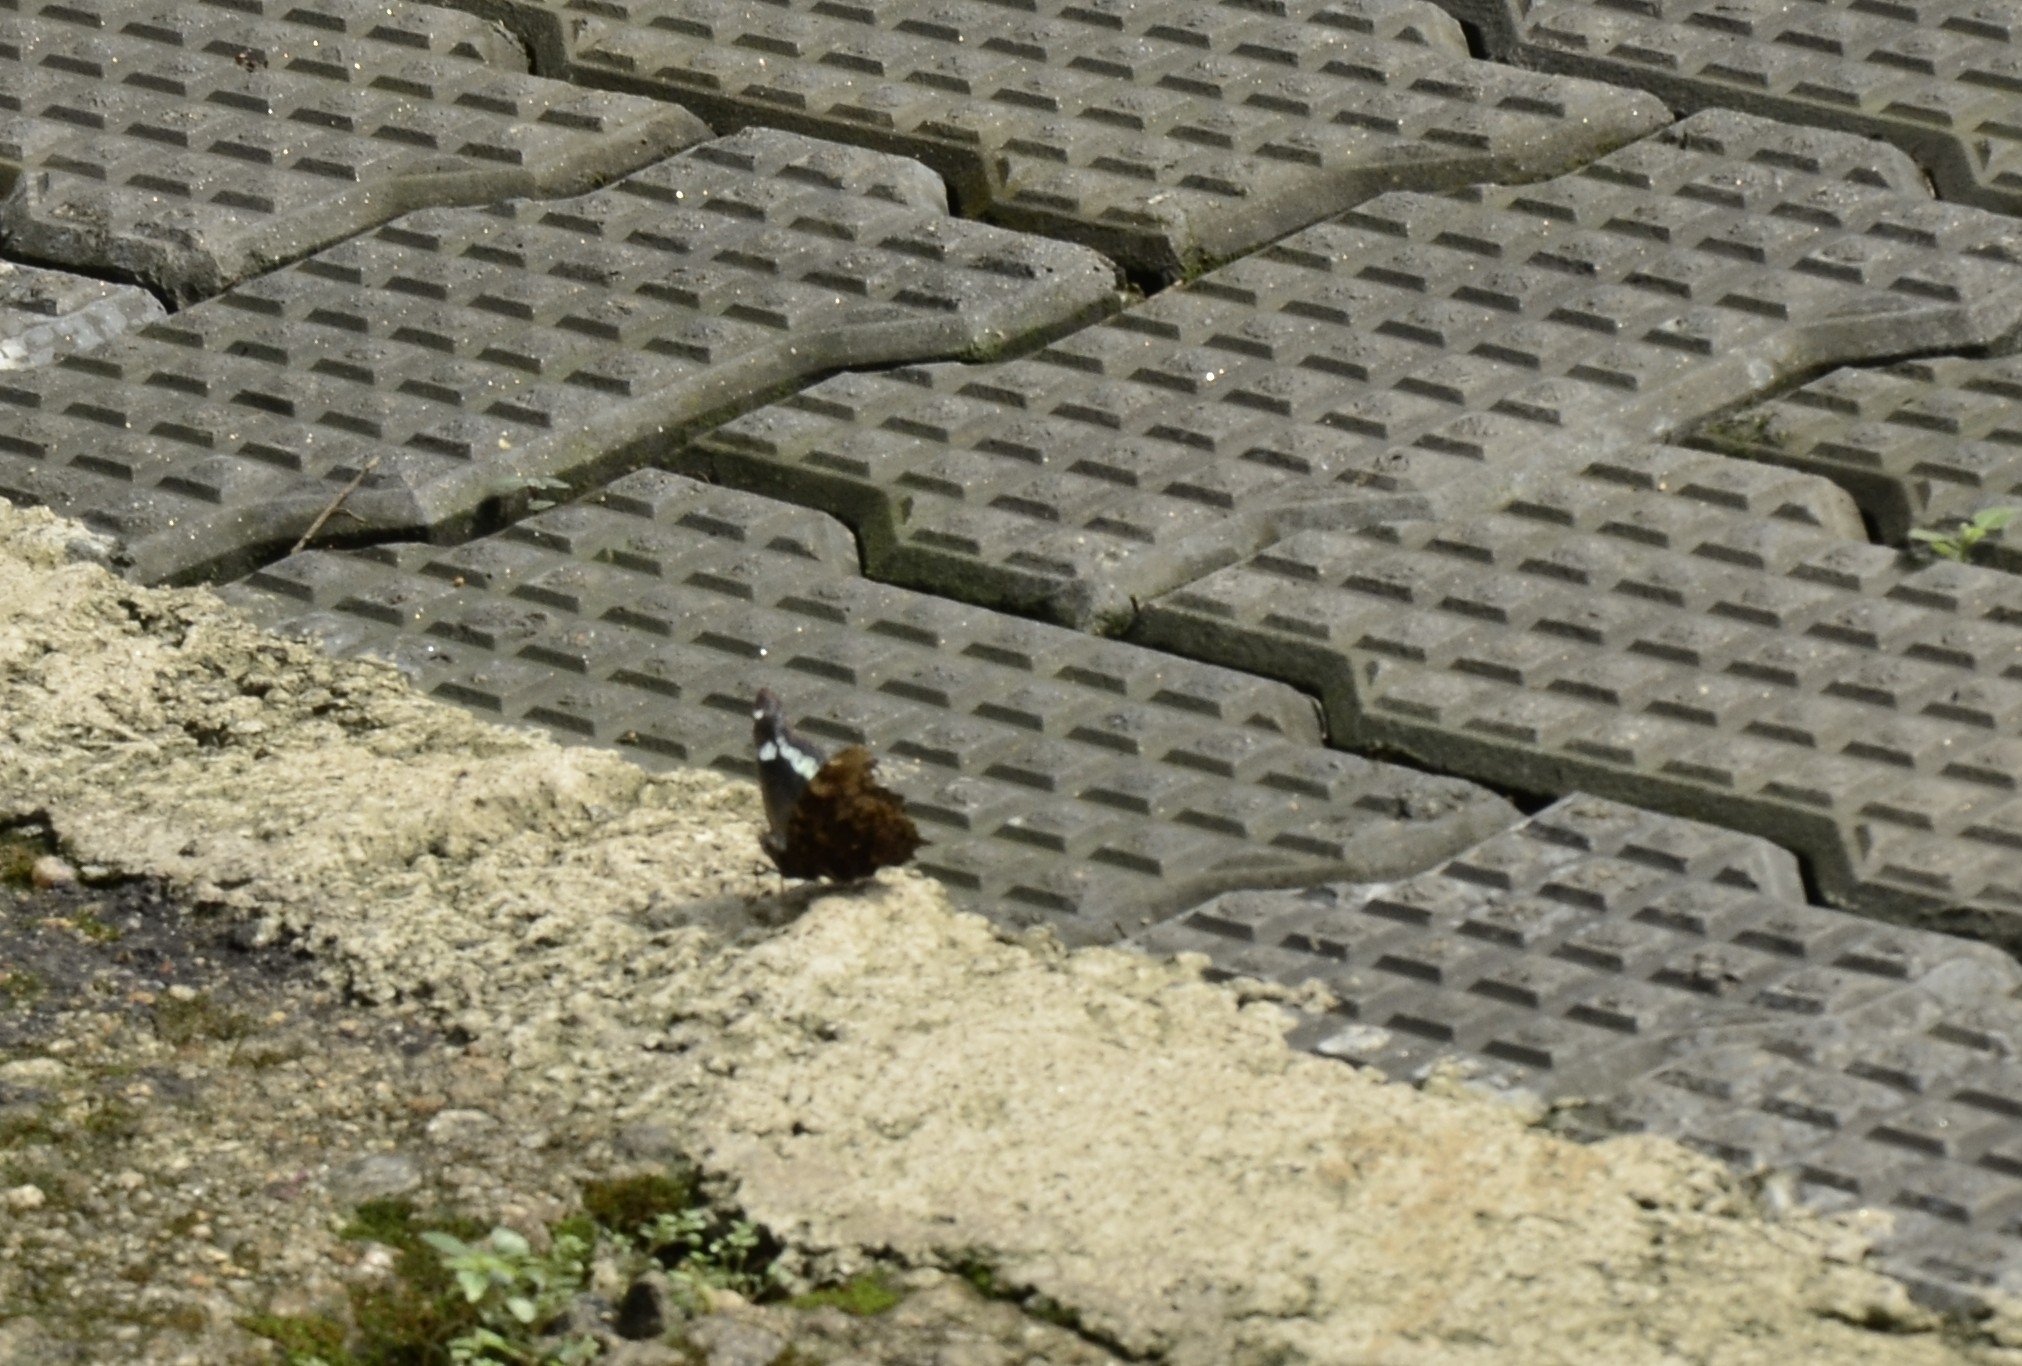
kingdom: Animalia
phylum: Arthropoda
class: Insecta
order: Lepidoptera
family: Nymphalidae
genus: Vanessa
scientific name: Vanessa Kaniska canace
